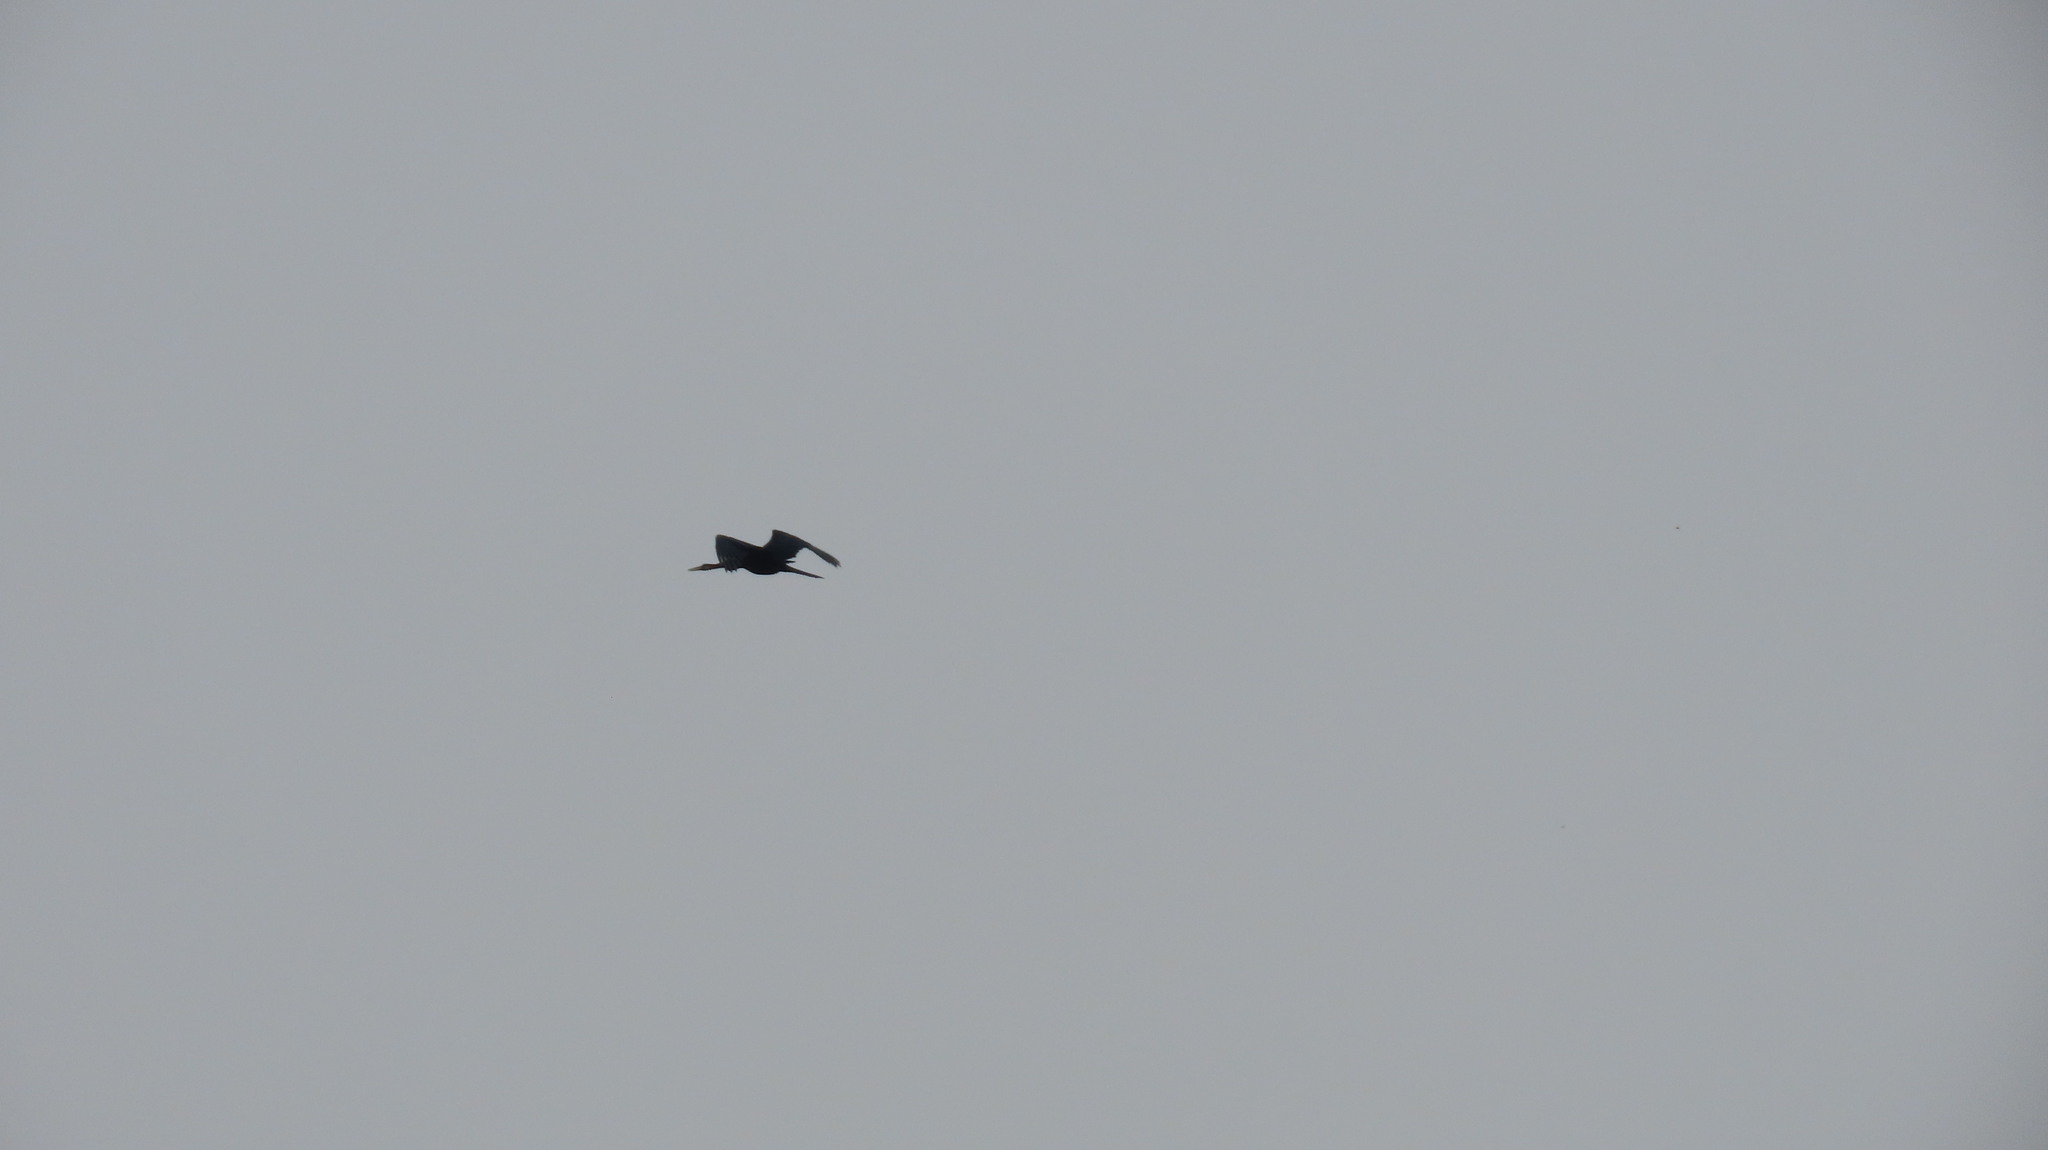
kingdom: Animalia
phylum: Chordata
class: Aves
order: Suliformes
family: Anhingidae
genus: Anhinga
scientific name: Anhinga melanogaster
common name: Oriental darter
